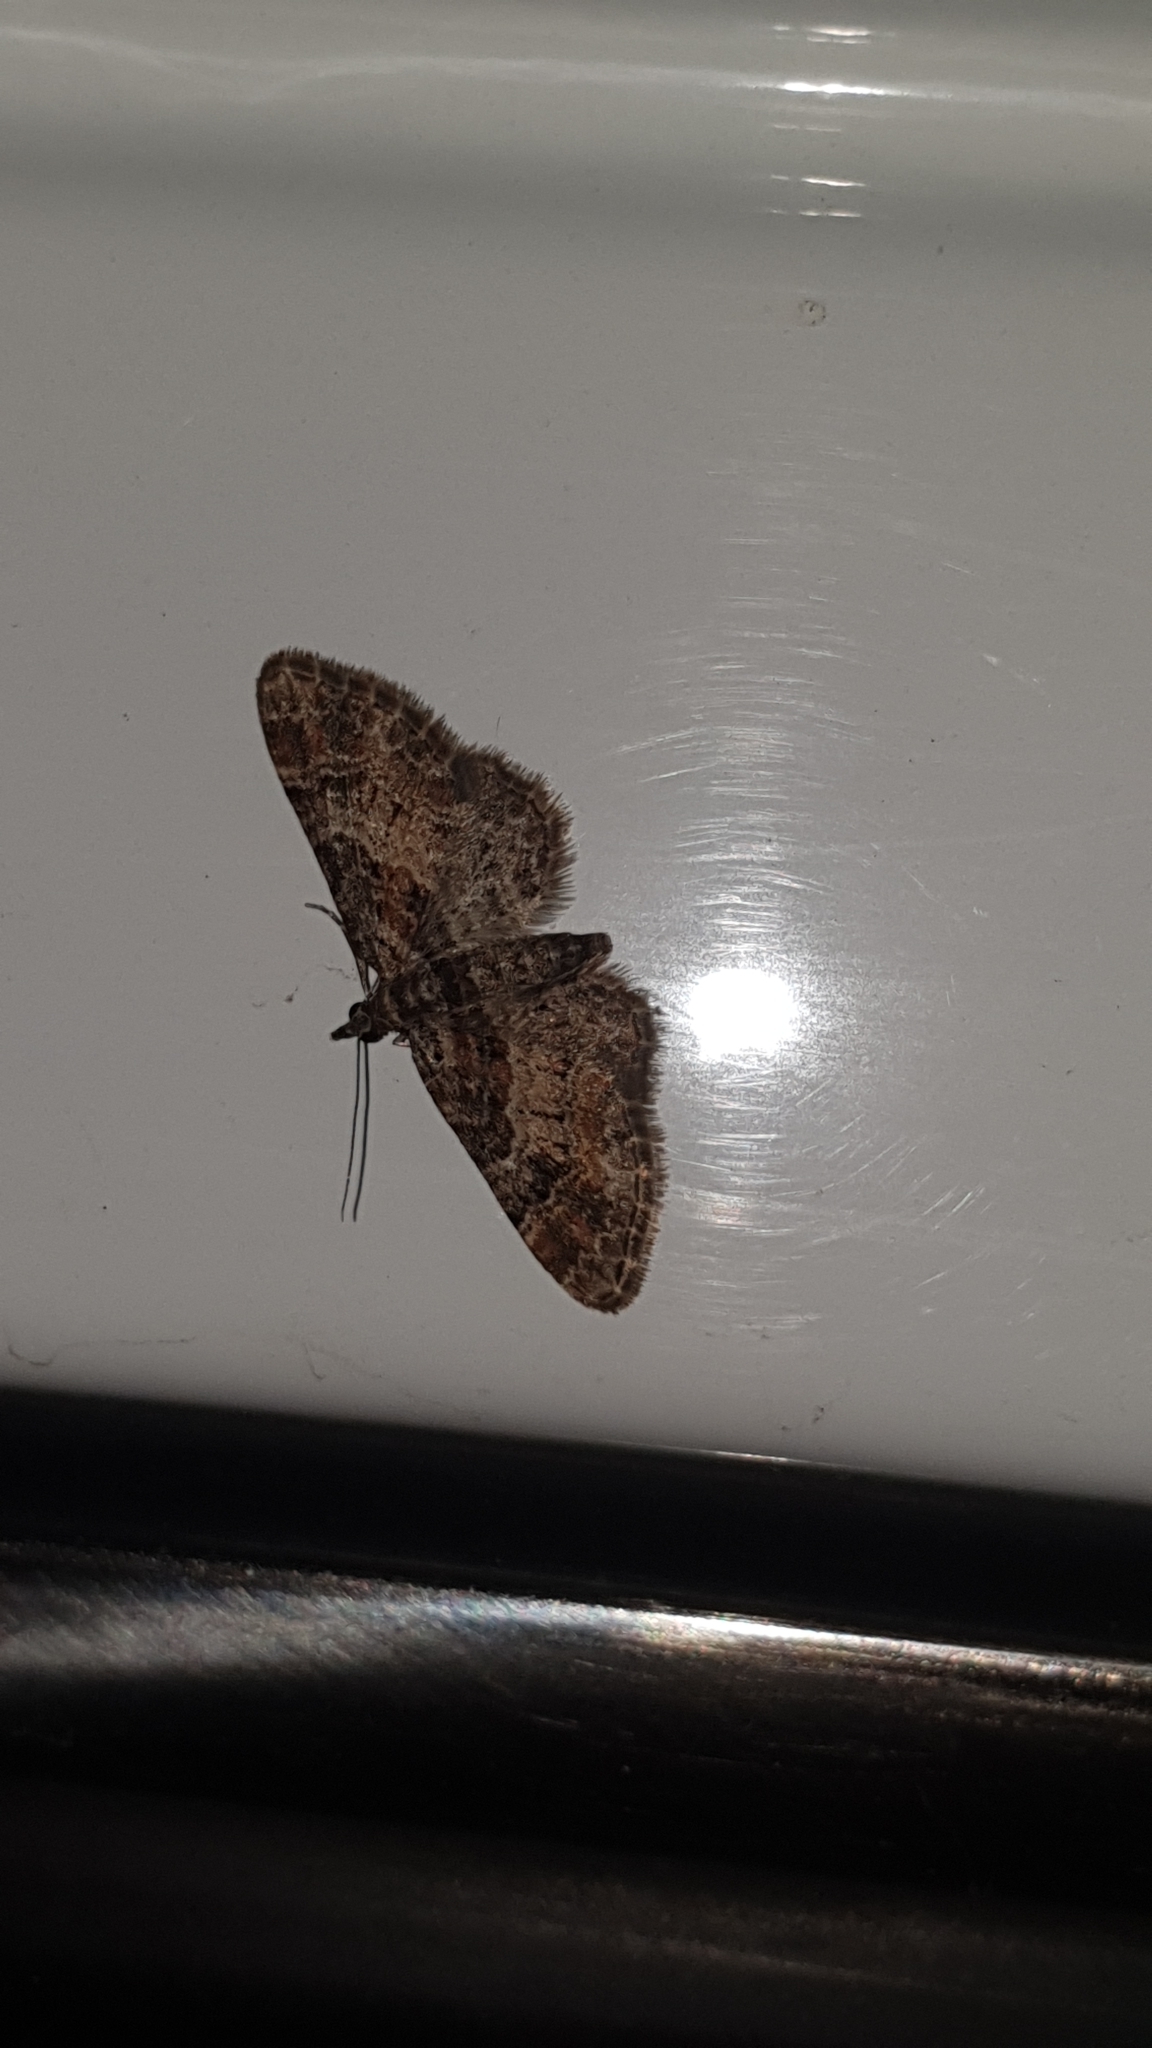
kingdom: Animalia
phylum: Arthropoda
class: Insecta
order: Lepidoptera
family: Geometridae
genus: Gymnoscelis
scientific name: Gymnoscelis rufifasciata
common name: Double-striped pug
